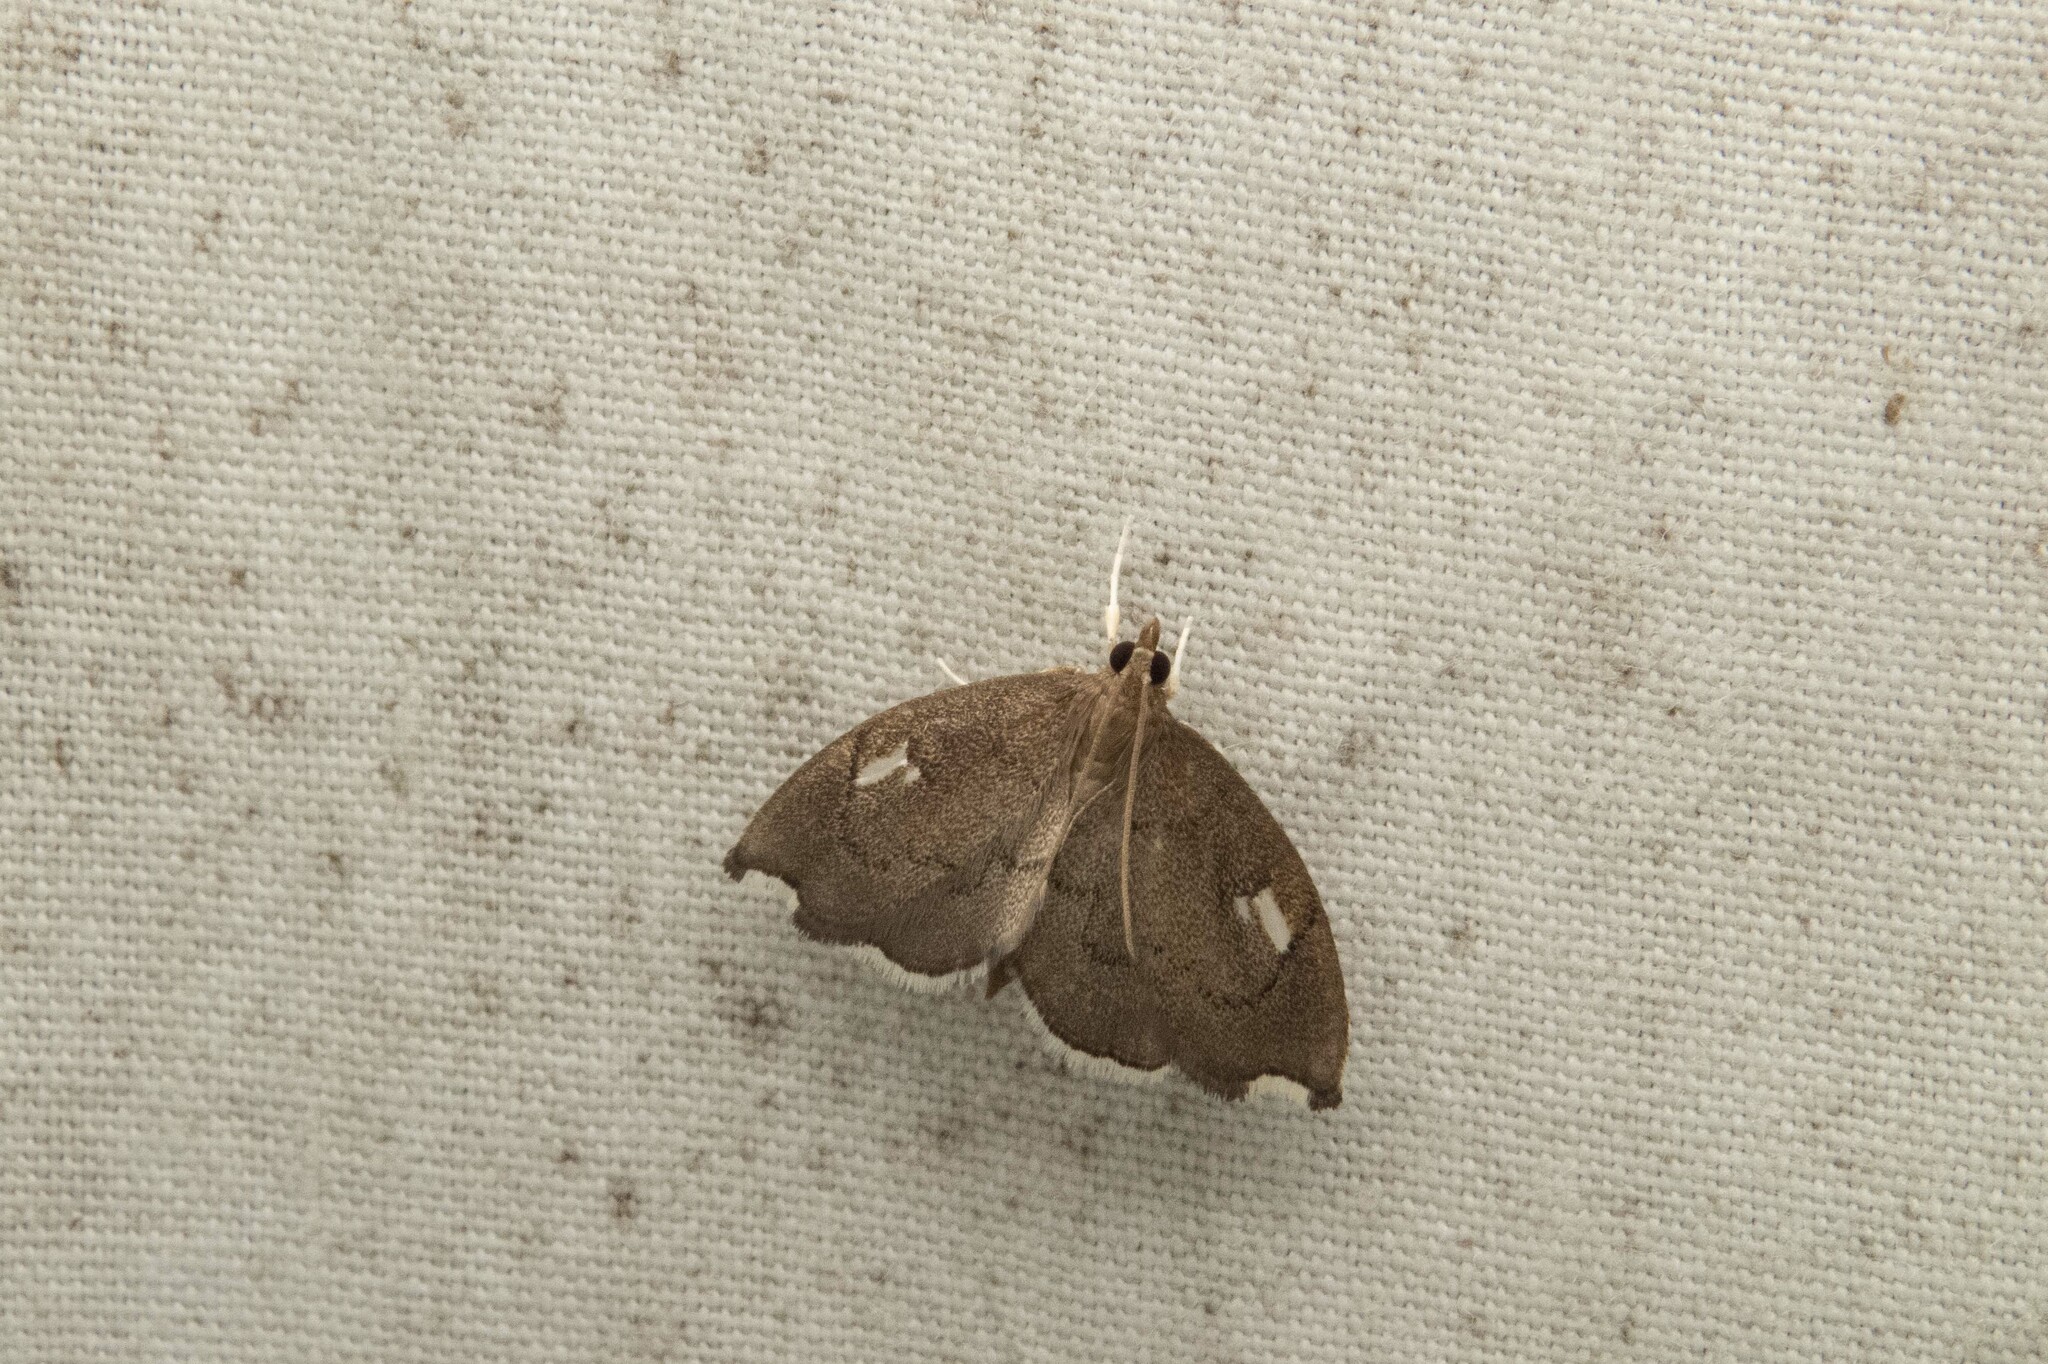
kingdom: Animalia
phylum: Arthropoda
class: Insecta
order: Lepidoptera
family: Crambidae
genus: Perispasta
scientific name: Perispasta caeculalis
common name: Titian peale's moth
